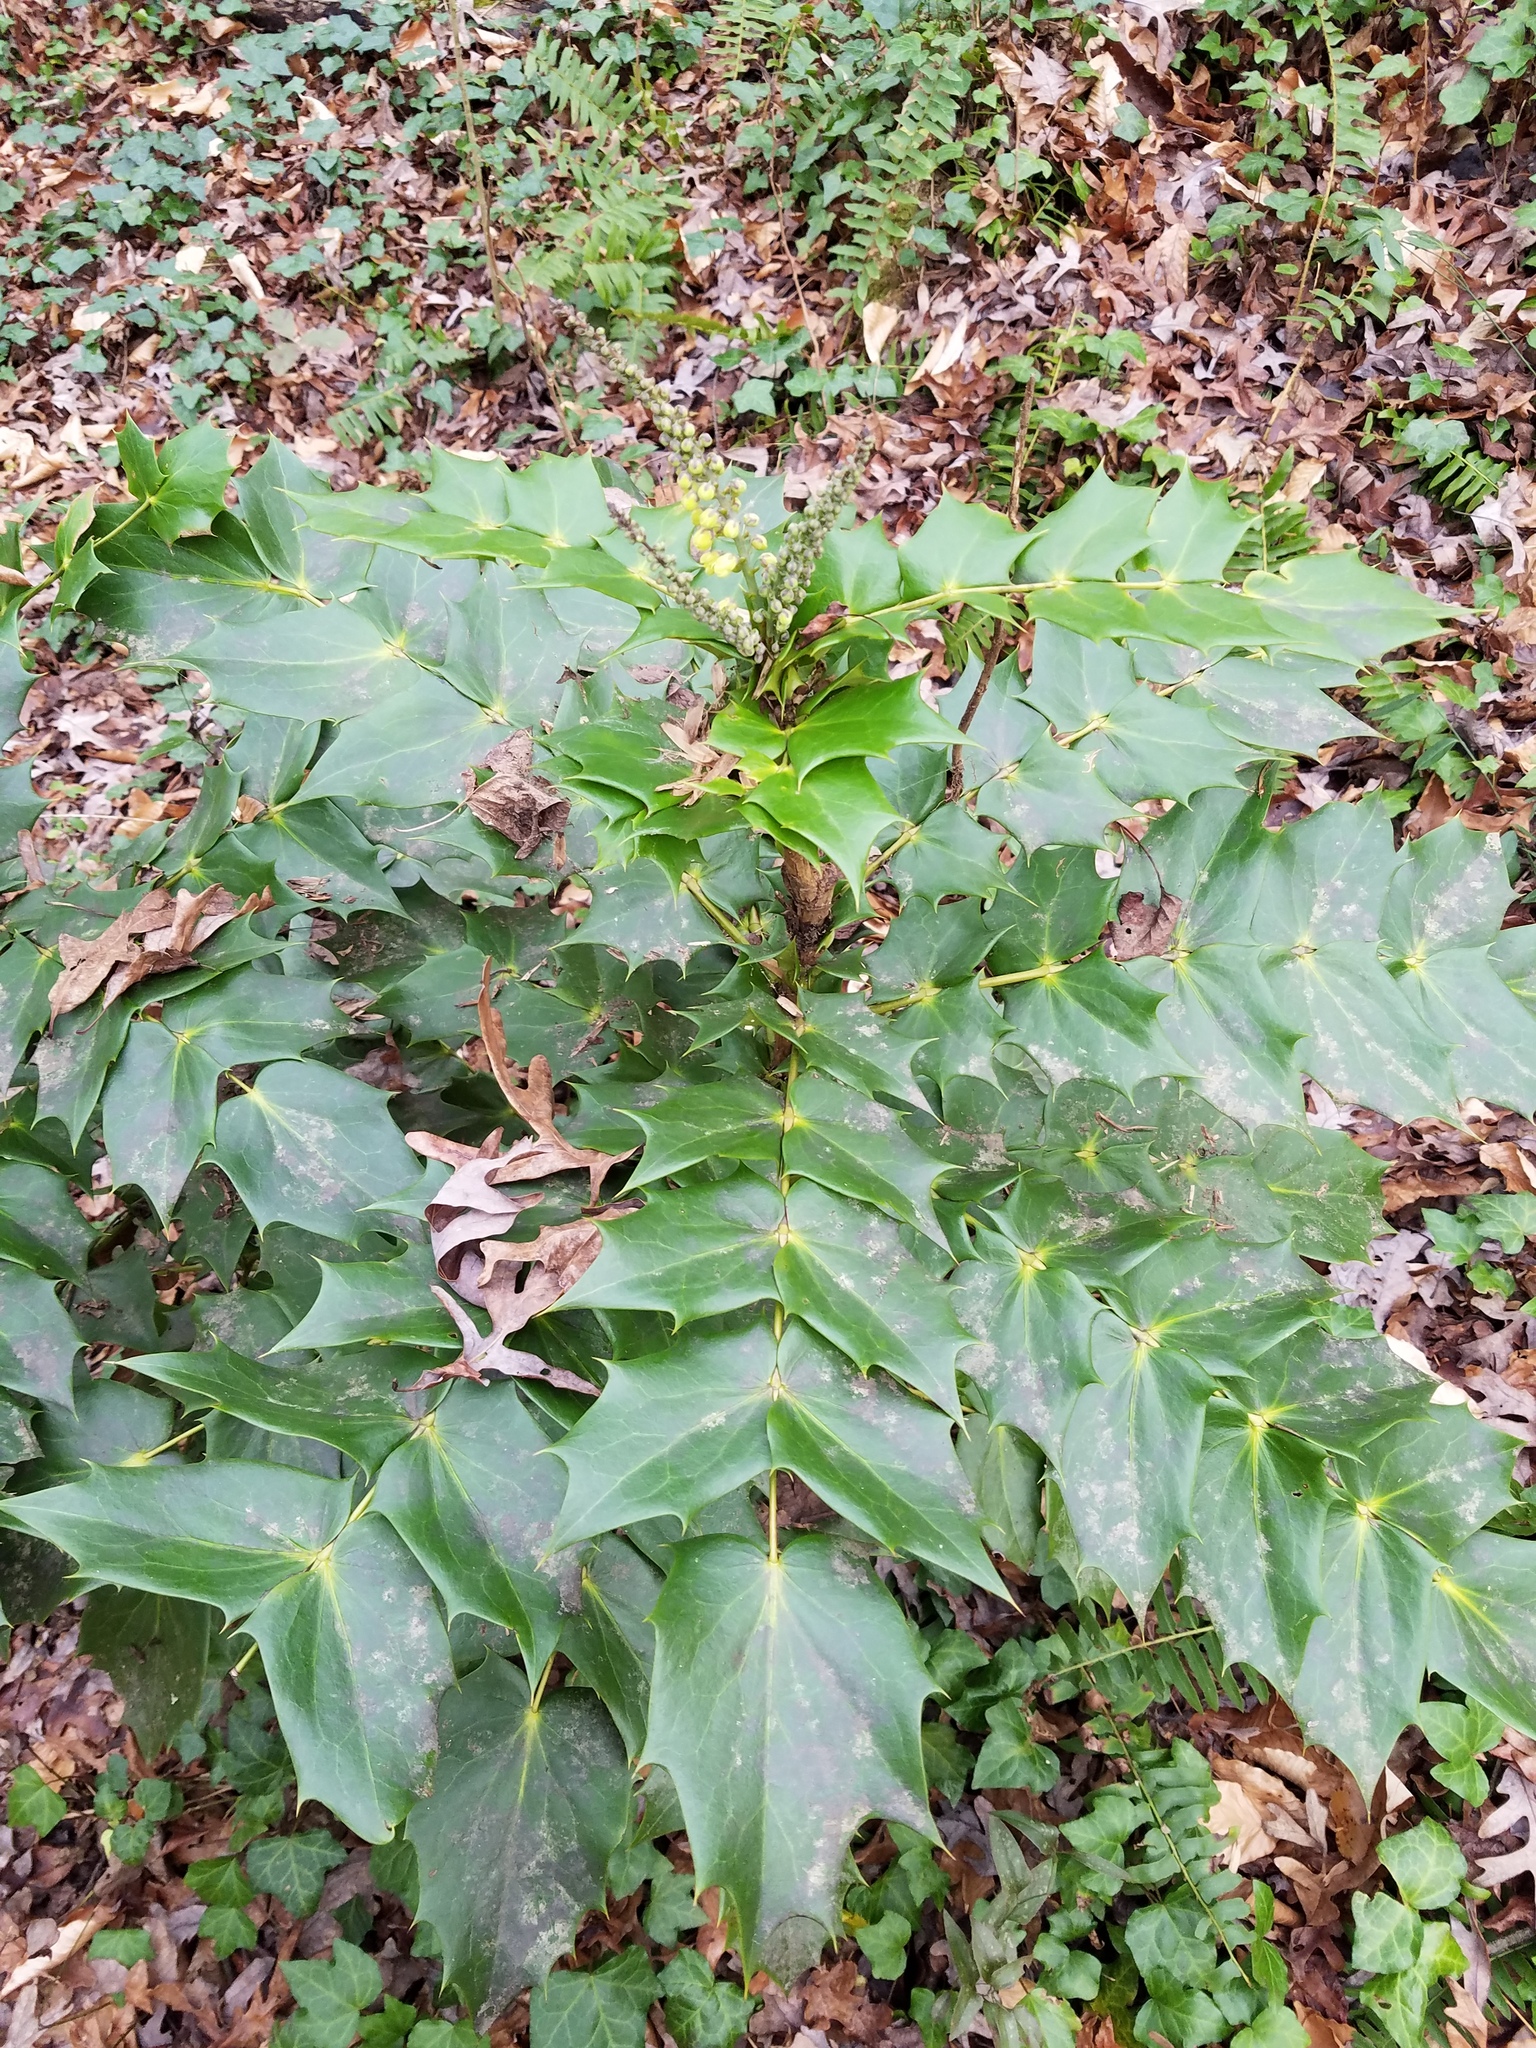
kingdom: Plantae
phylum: Tracheophyta
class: Magnoliopsida
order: Ranunculales
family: Berberidaceae
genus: Mahonia
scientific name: Mahonia bealei
